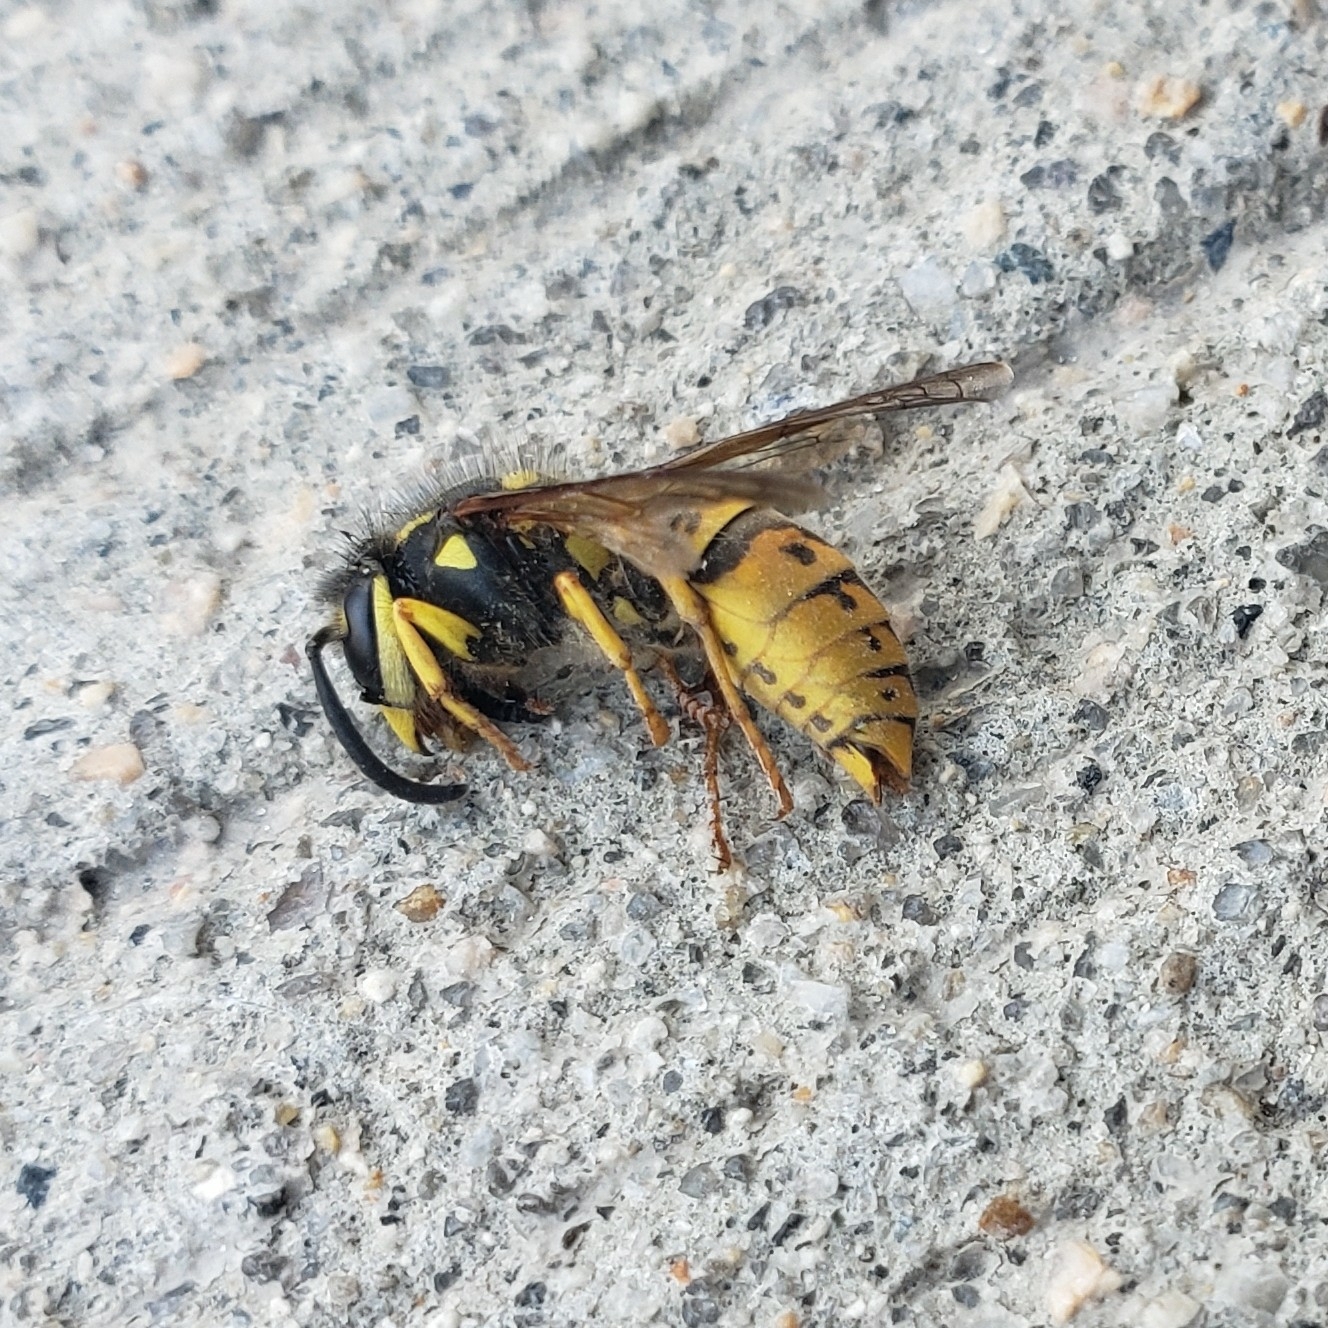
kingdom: Animalia
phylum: Arthropoda
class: Insecta
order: Hymenoptera
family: Vespidae
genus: Vespula
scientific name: Vespula germanica
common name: German wasp
